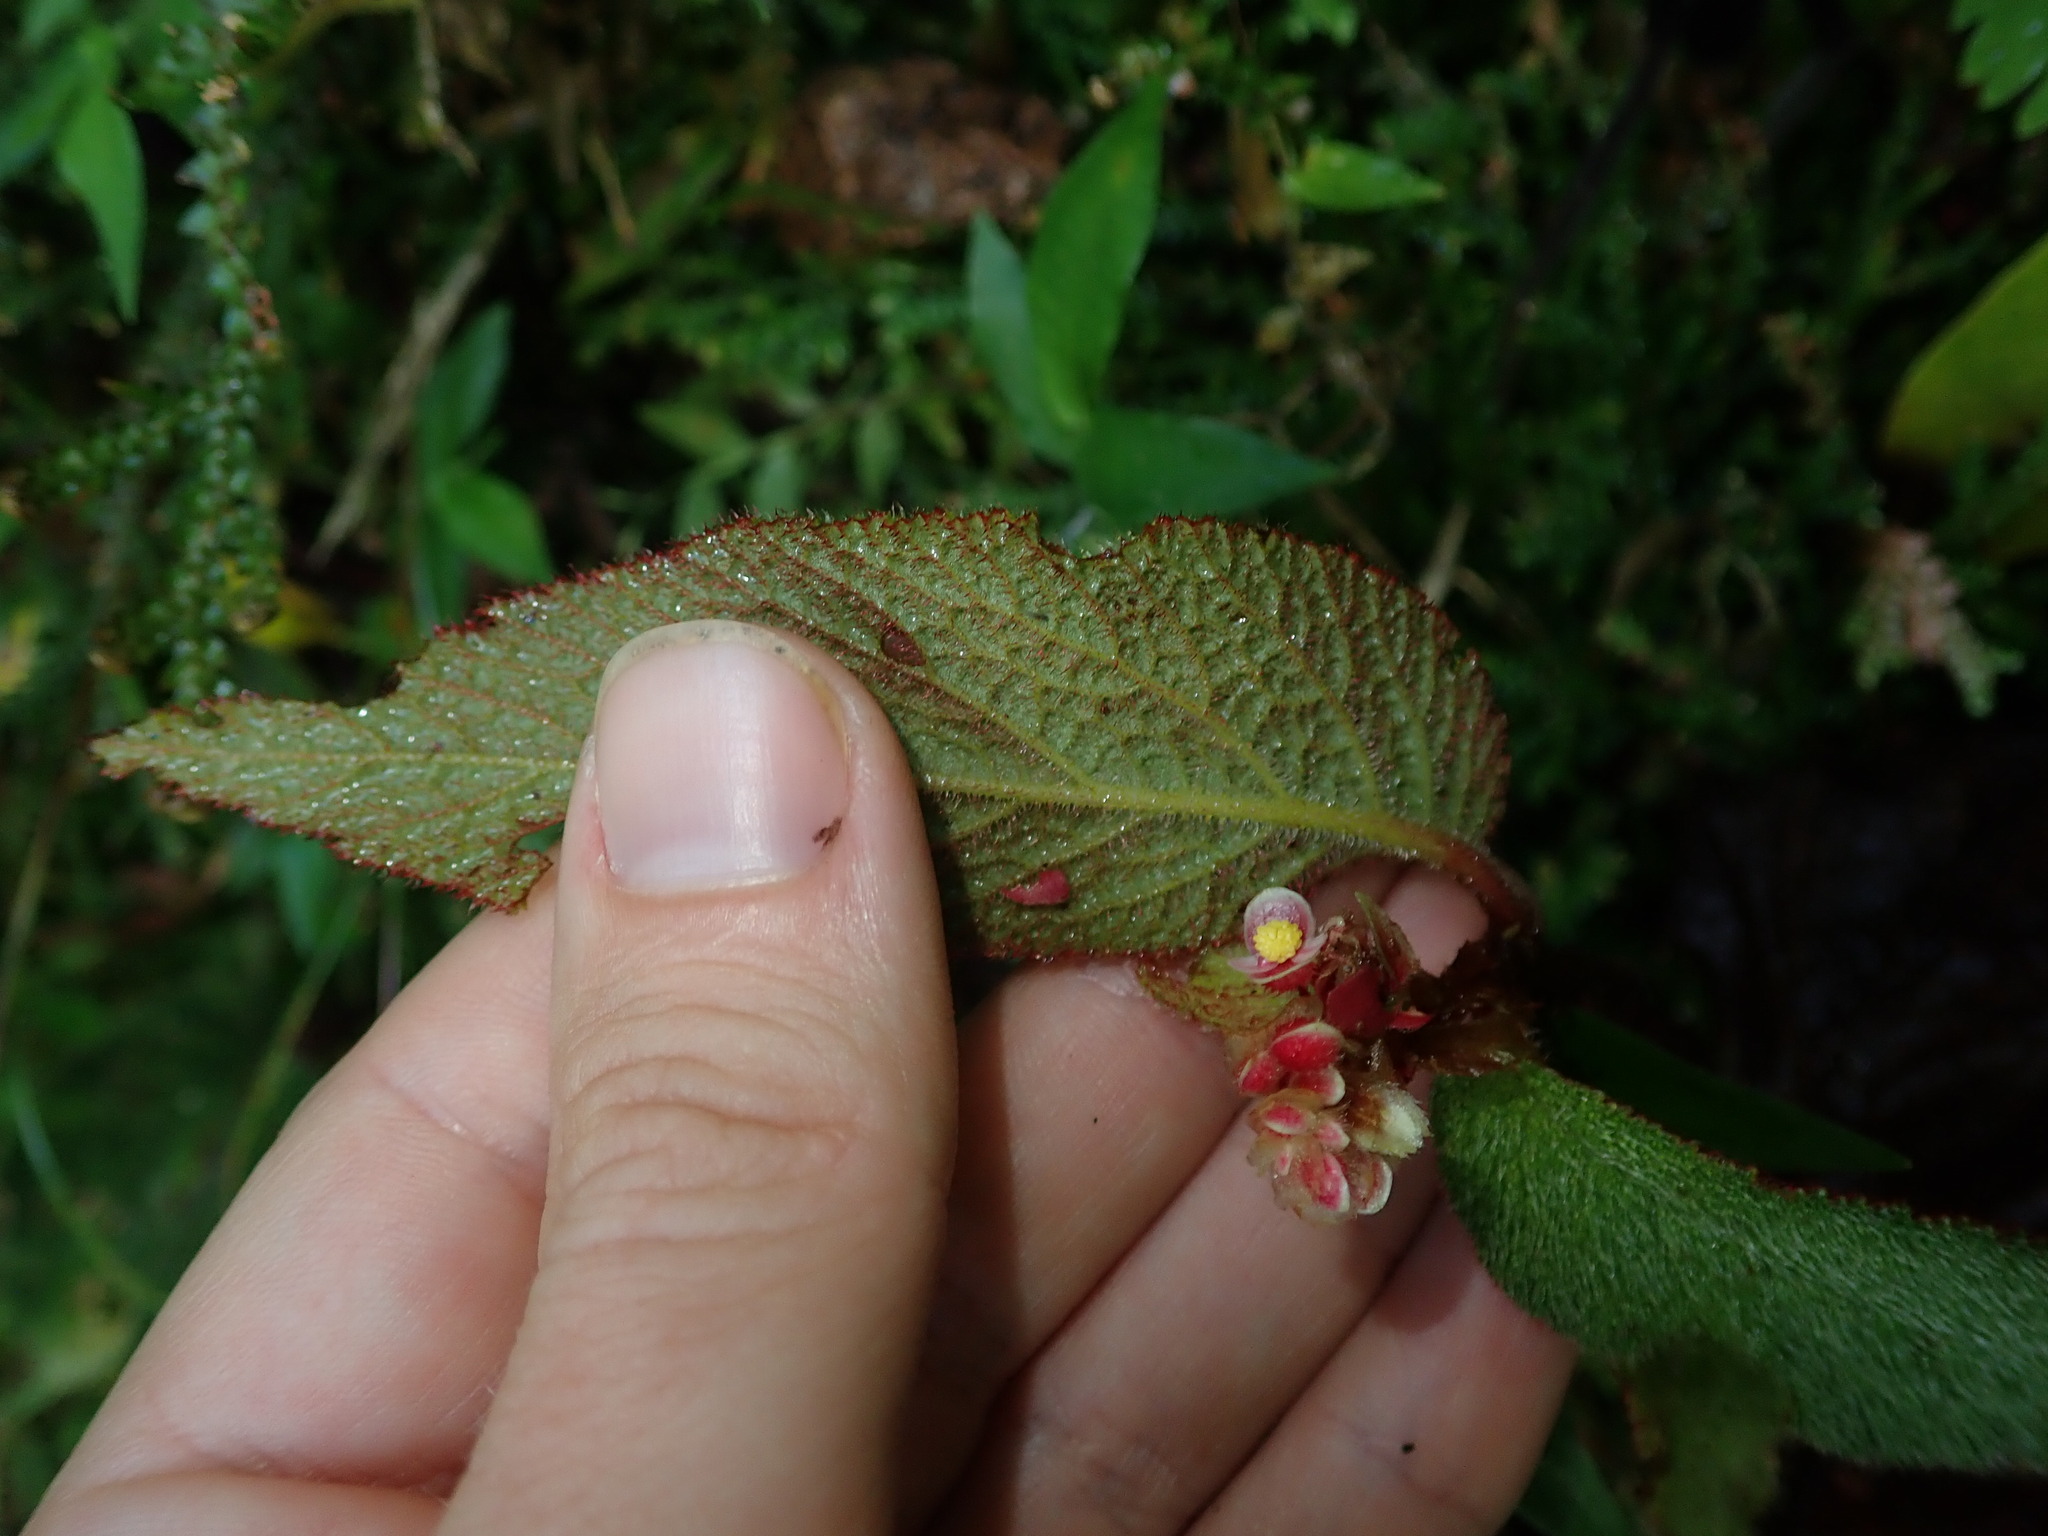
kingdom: Plantae
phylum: Tracheophyta
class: Magnoliopsida
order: Cucurbitales
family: Begoniaceae
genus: Begonia
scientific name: Begonia buddleiifolia
